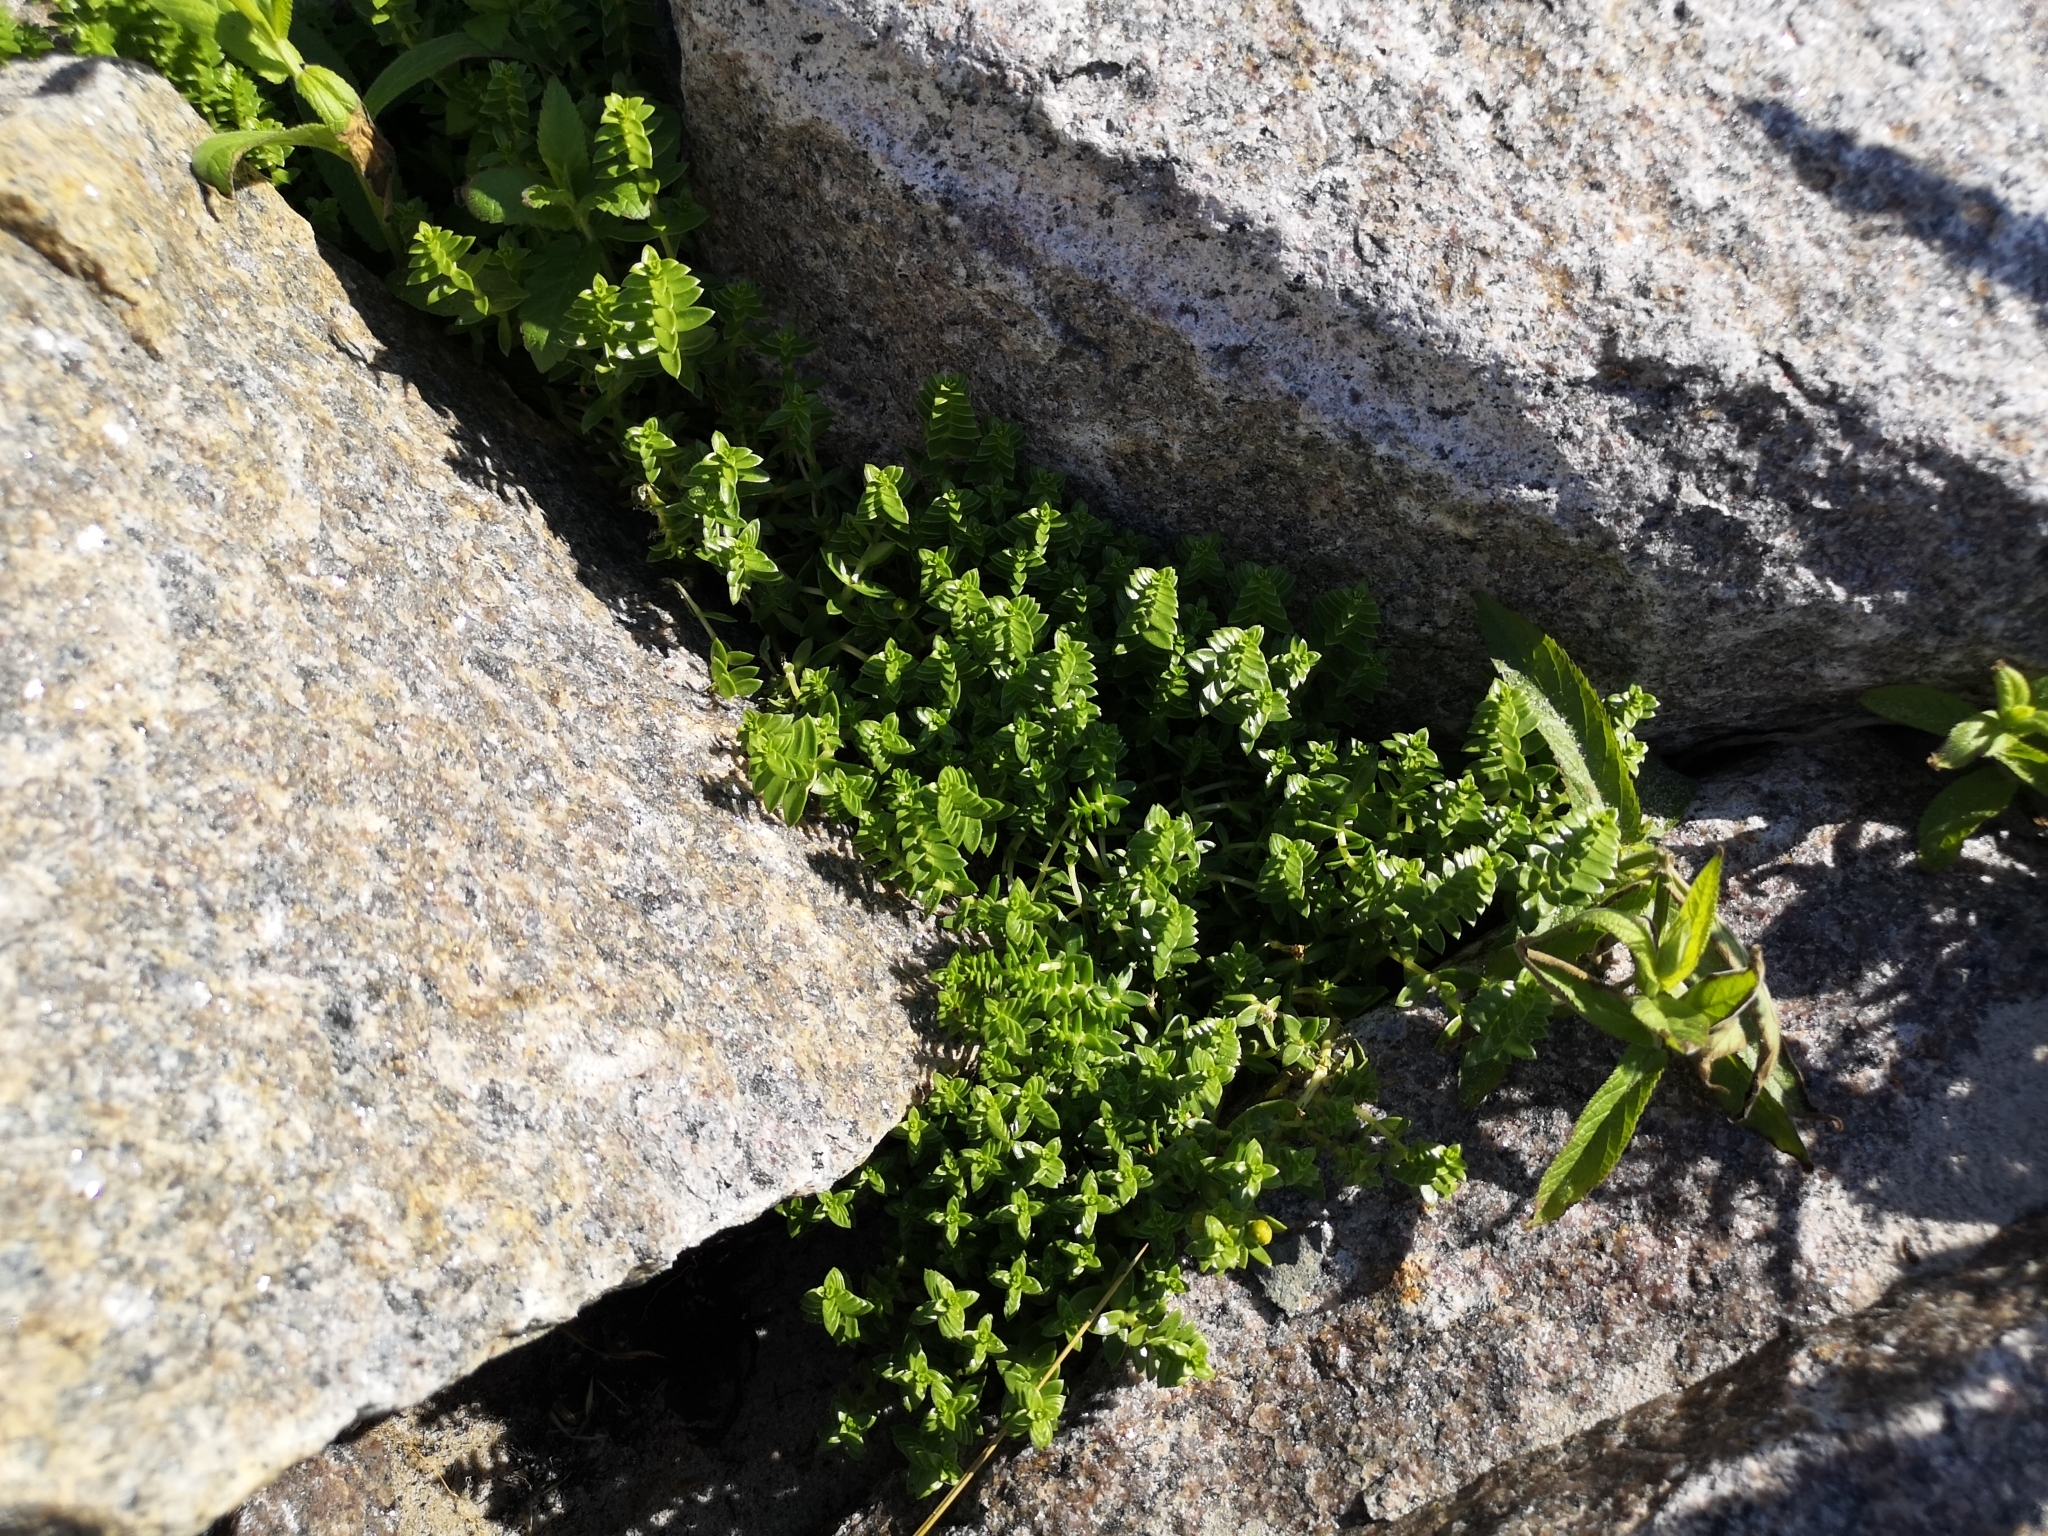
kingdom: Plantae
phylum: Tracheophyta
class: Magnoliopsida
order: Caryophyllales
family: Caryophyllaceae
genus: Honckenya
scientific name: Honckenya peploides
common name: Sea sandwort
